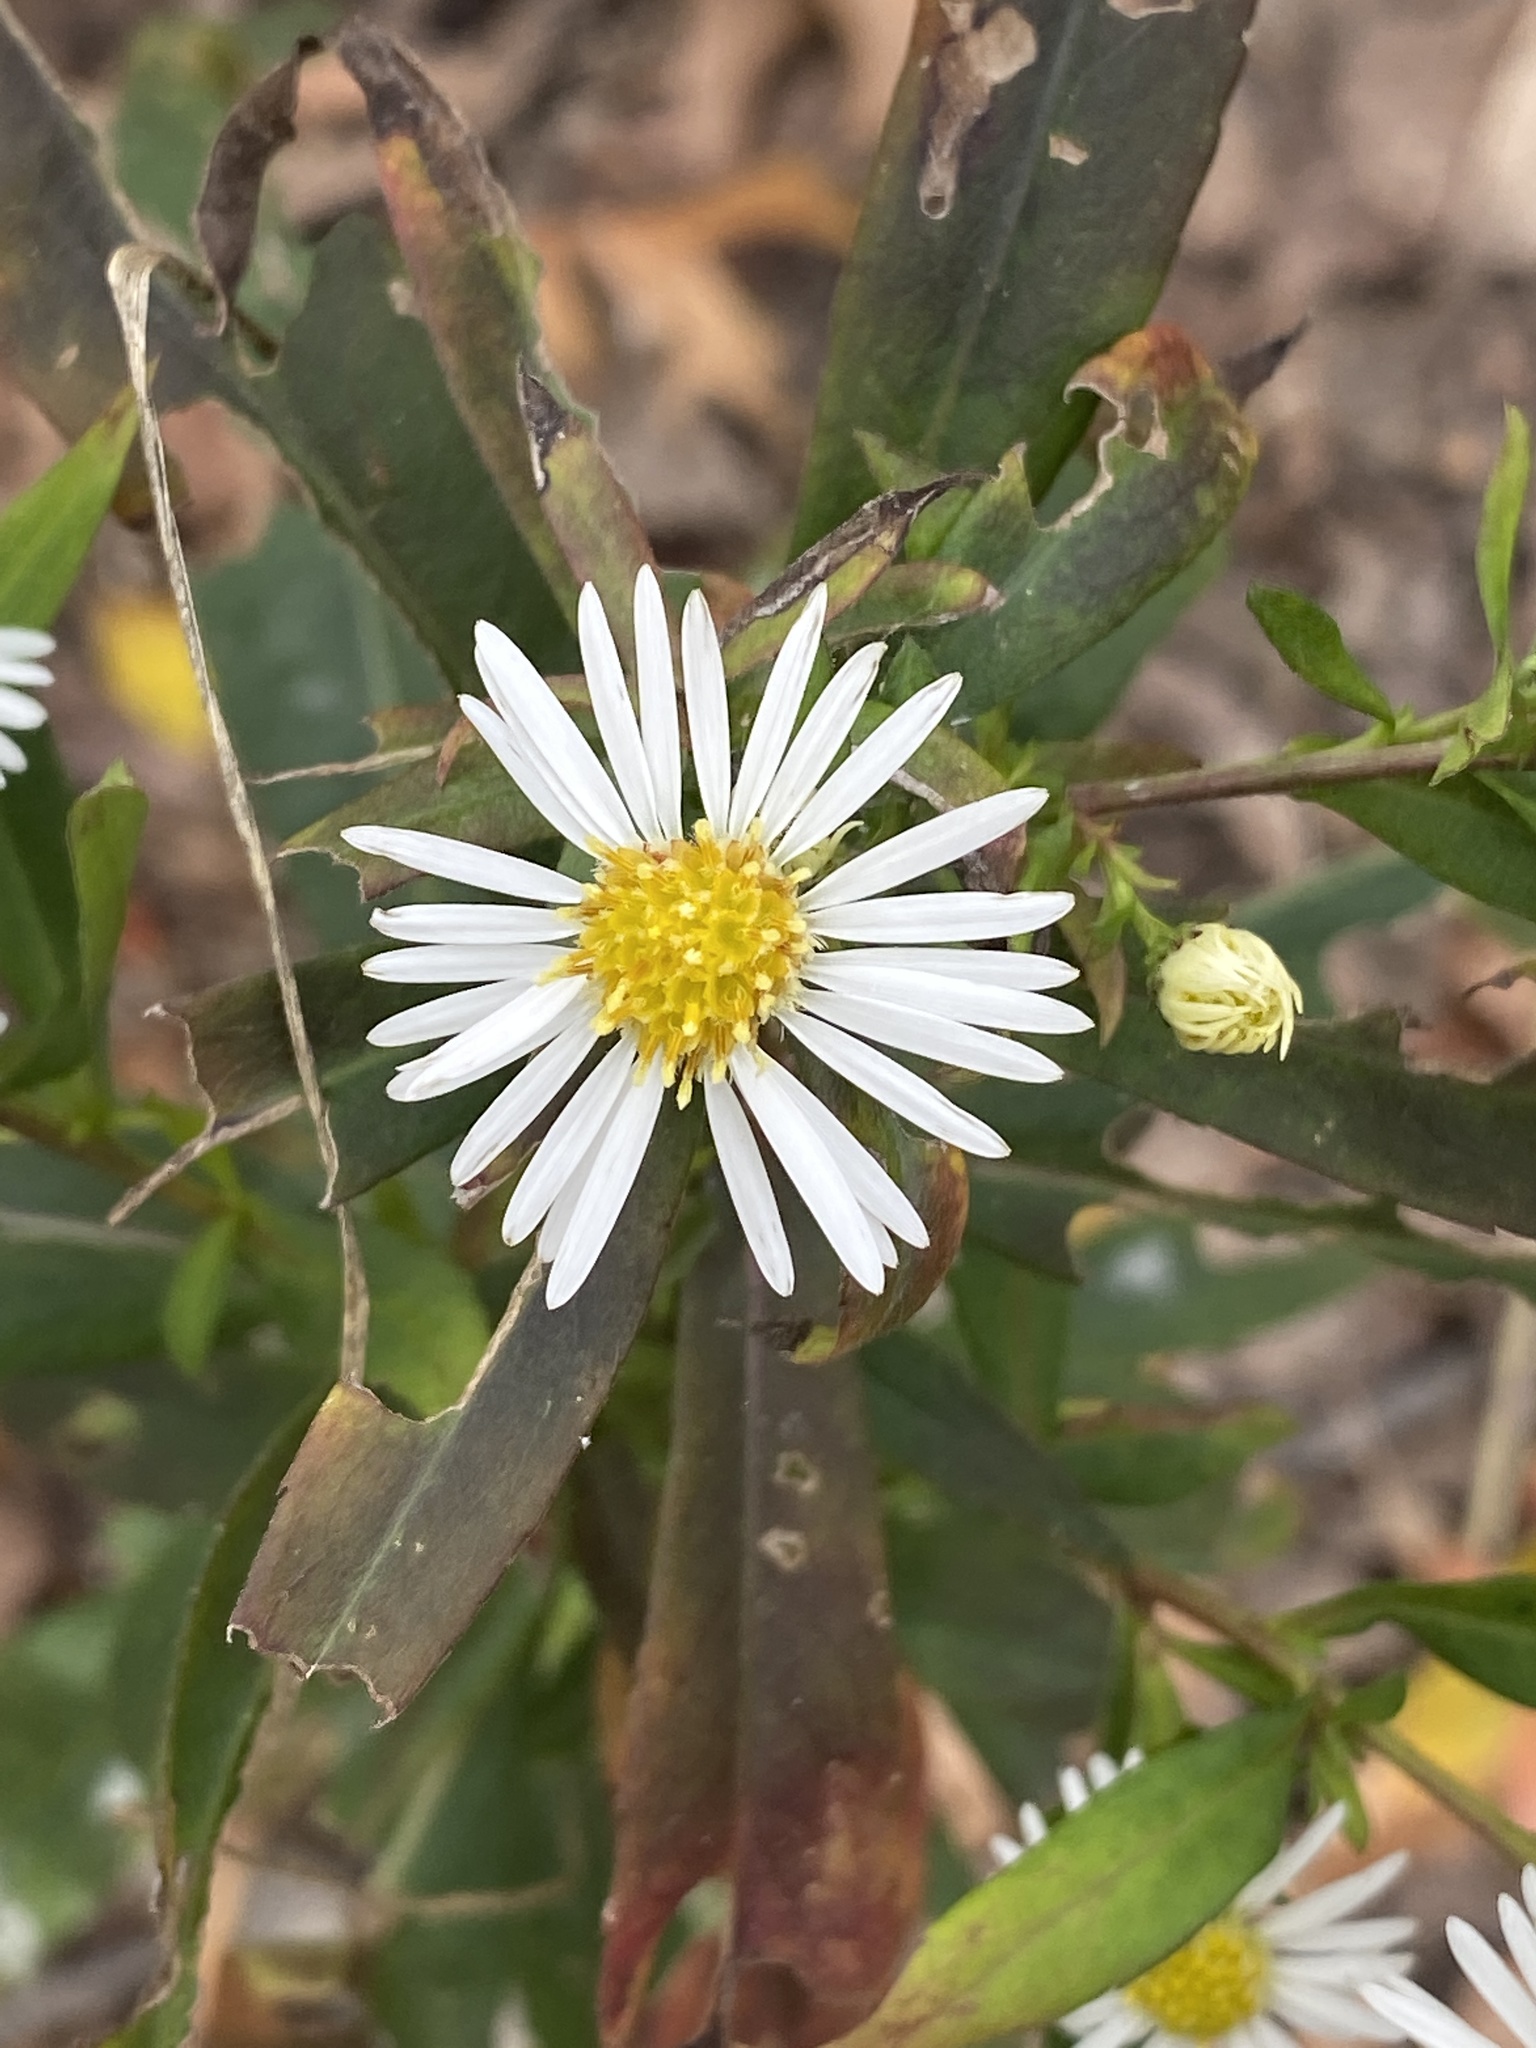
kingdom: Plantae
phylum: Tracheophyta
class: Magnoliopsida
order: Asterales
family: Asteraceae
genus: Symphyotrichum
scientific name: Symphyotrichum lanceolatum
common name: Panicled aster
